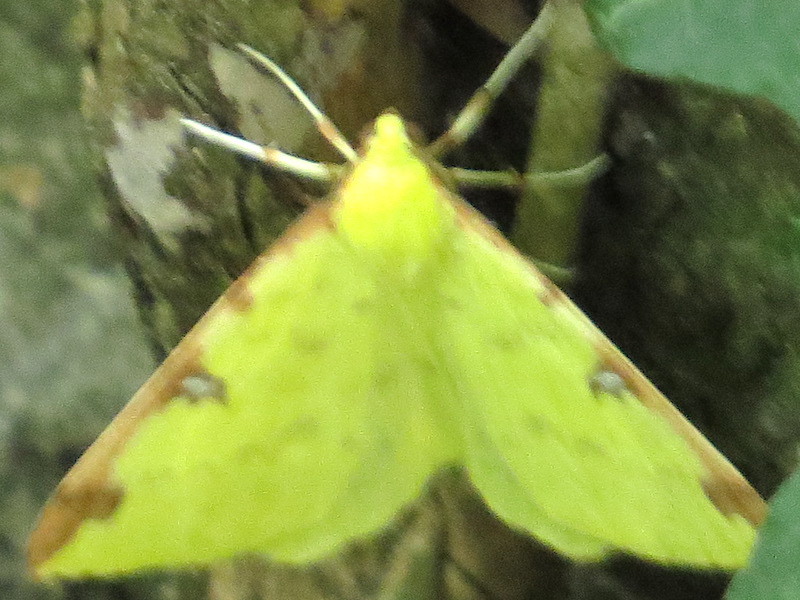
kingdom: Animalia
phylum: Arthropoda
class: Insecta
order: Lepidoptera
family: Geometridae
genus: Opisthograptis
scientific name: Opisthograptis luteolata
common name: Brimstone moth
